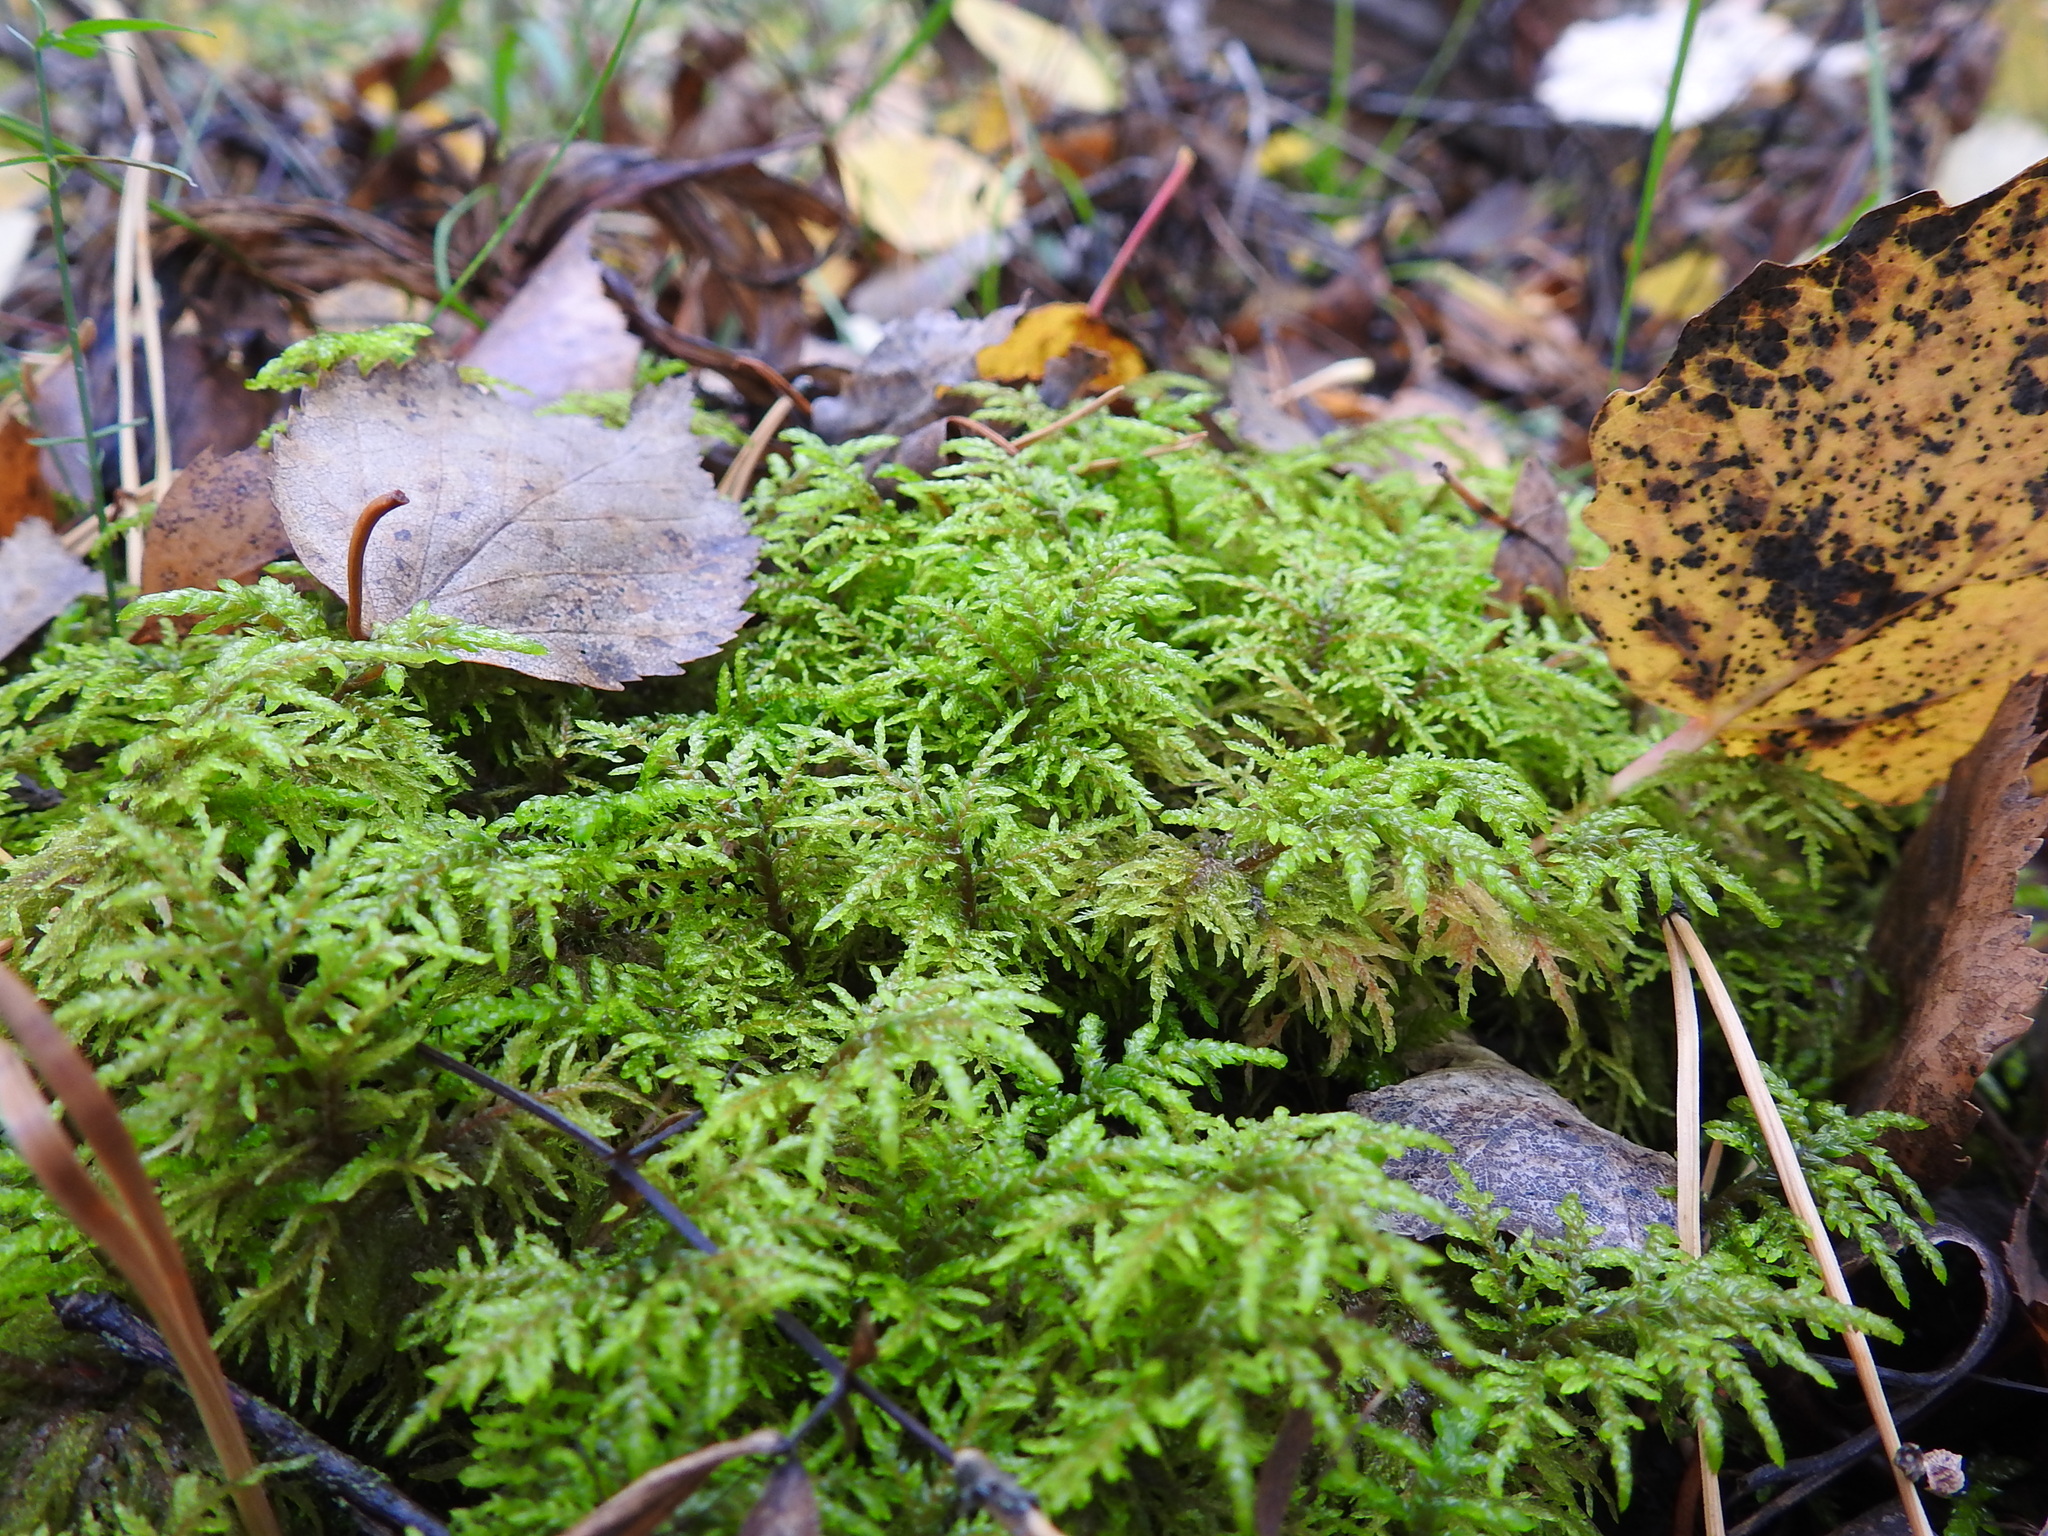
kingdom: Plantae
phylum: Bryophyta
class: Bryopsida
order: Hypnales
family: Hylocomiaceae
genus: Hylocomium
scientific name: Hylocomium splendens
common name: Stairstep moss
